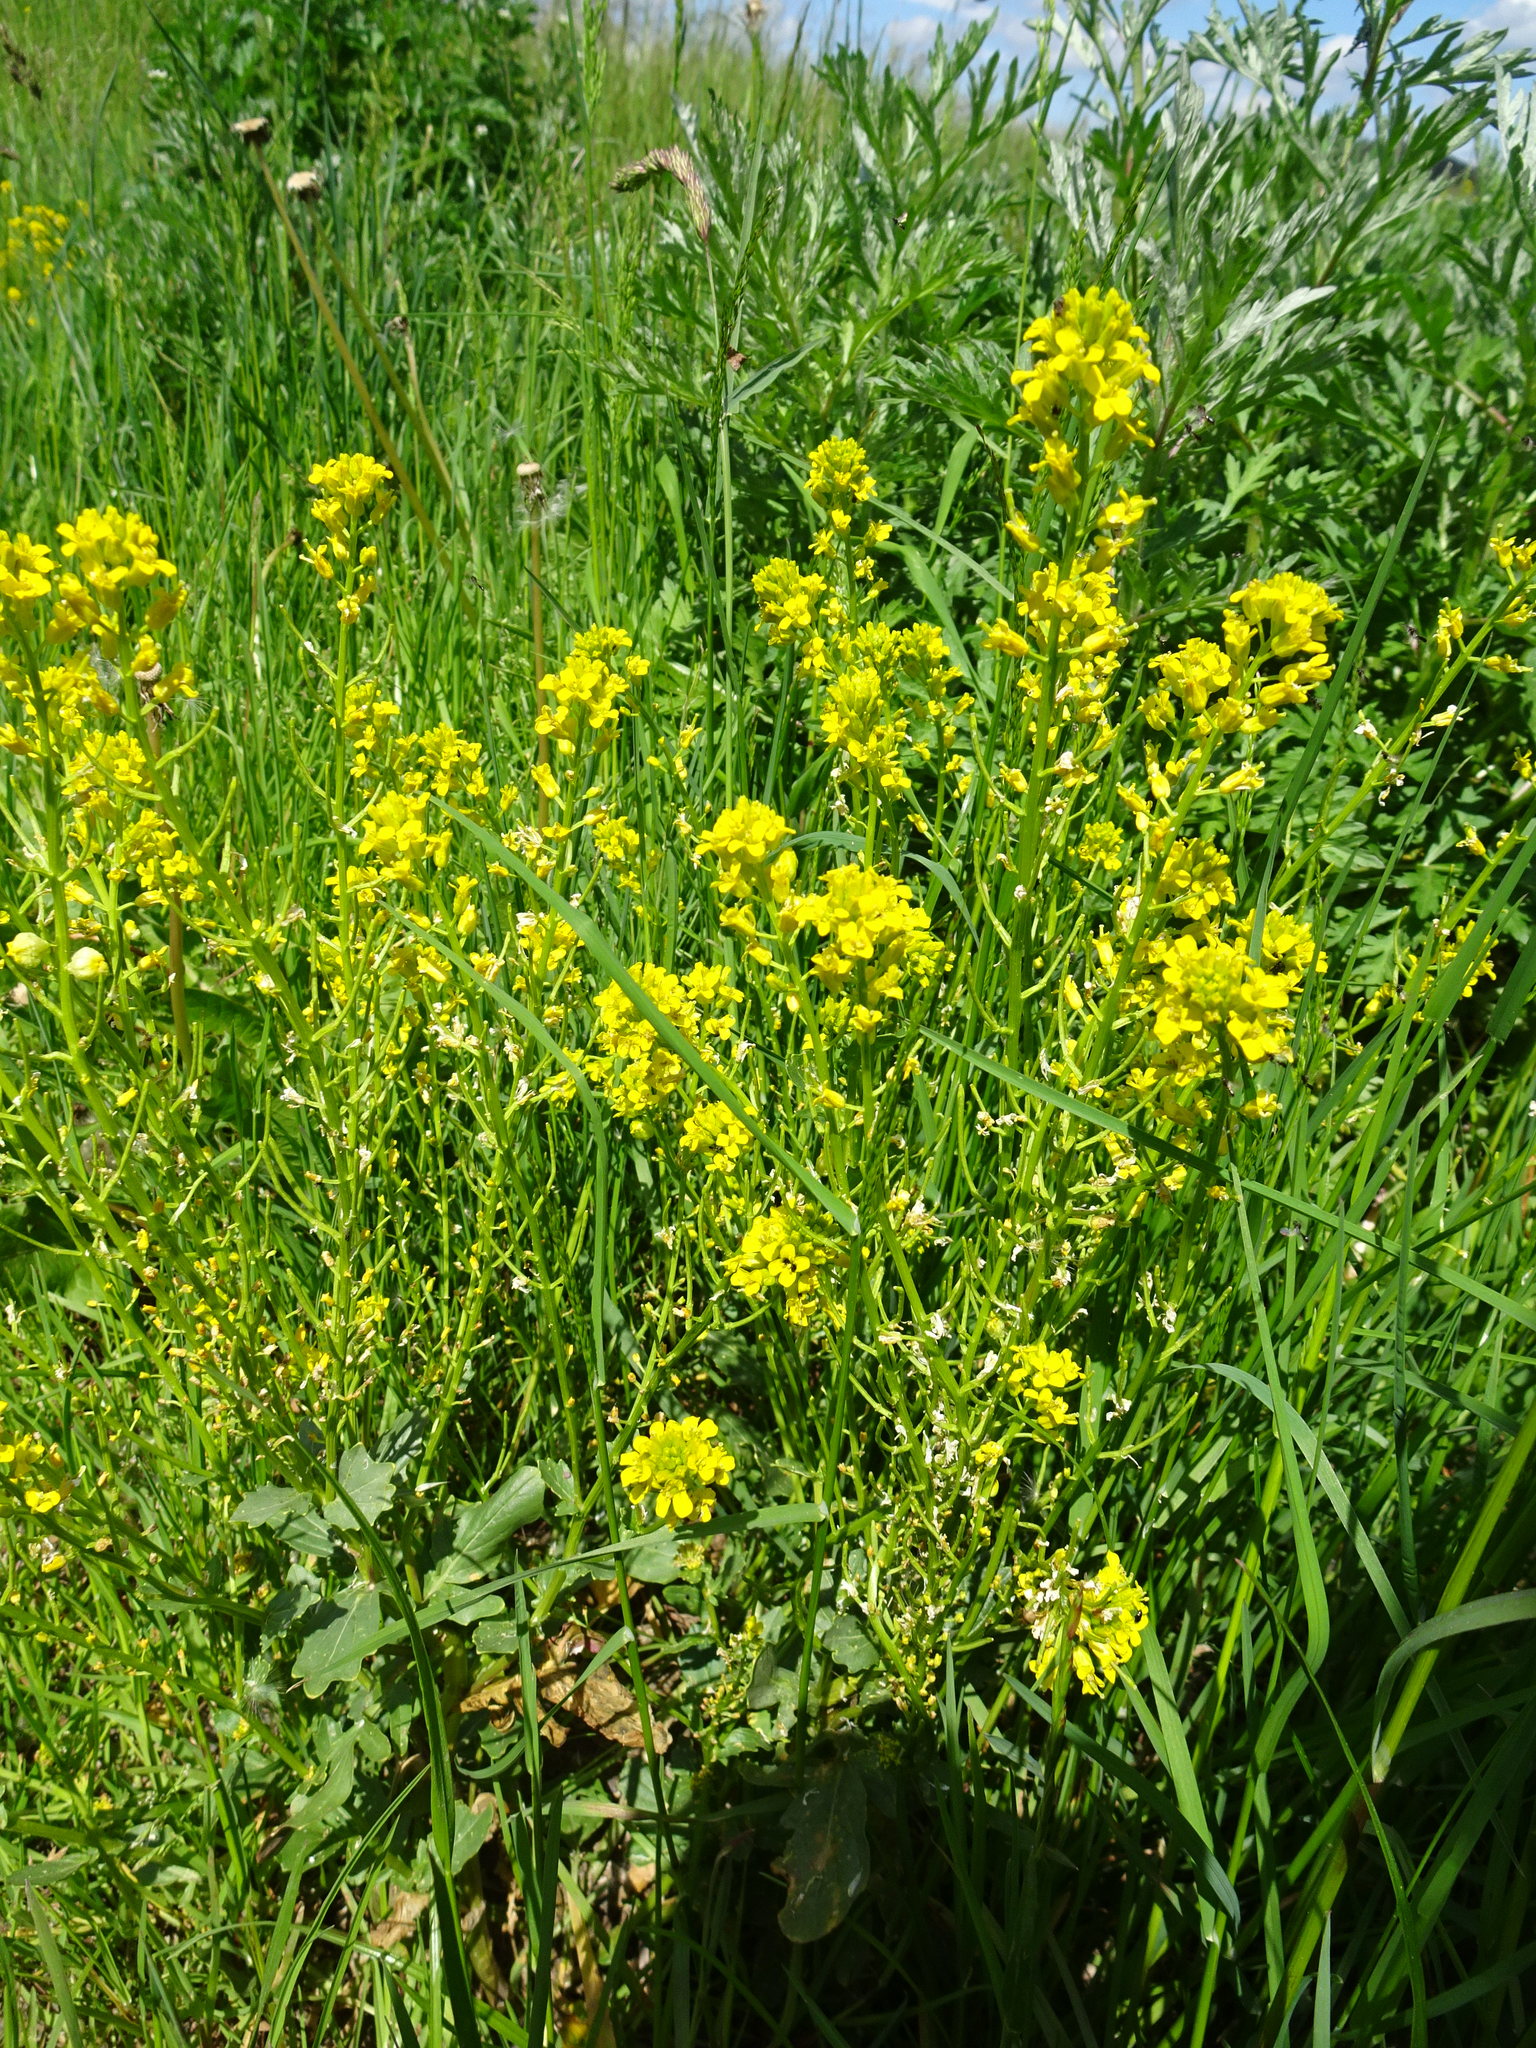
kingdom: Plantae
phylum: Tracheophyta
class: Magnoliopsida
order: Brassicales
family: Brassicaceae
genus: Barbarea
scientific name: Barbarea vulgaris
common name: Cressy-greens
